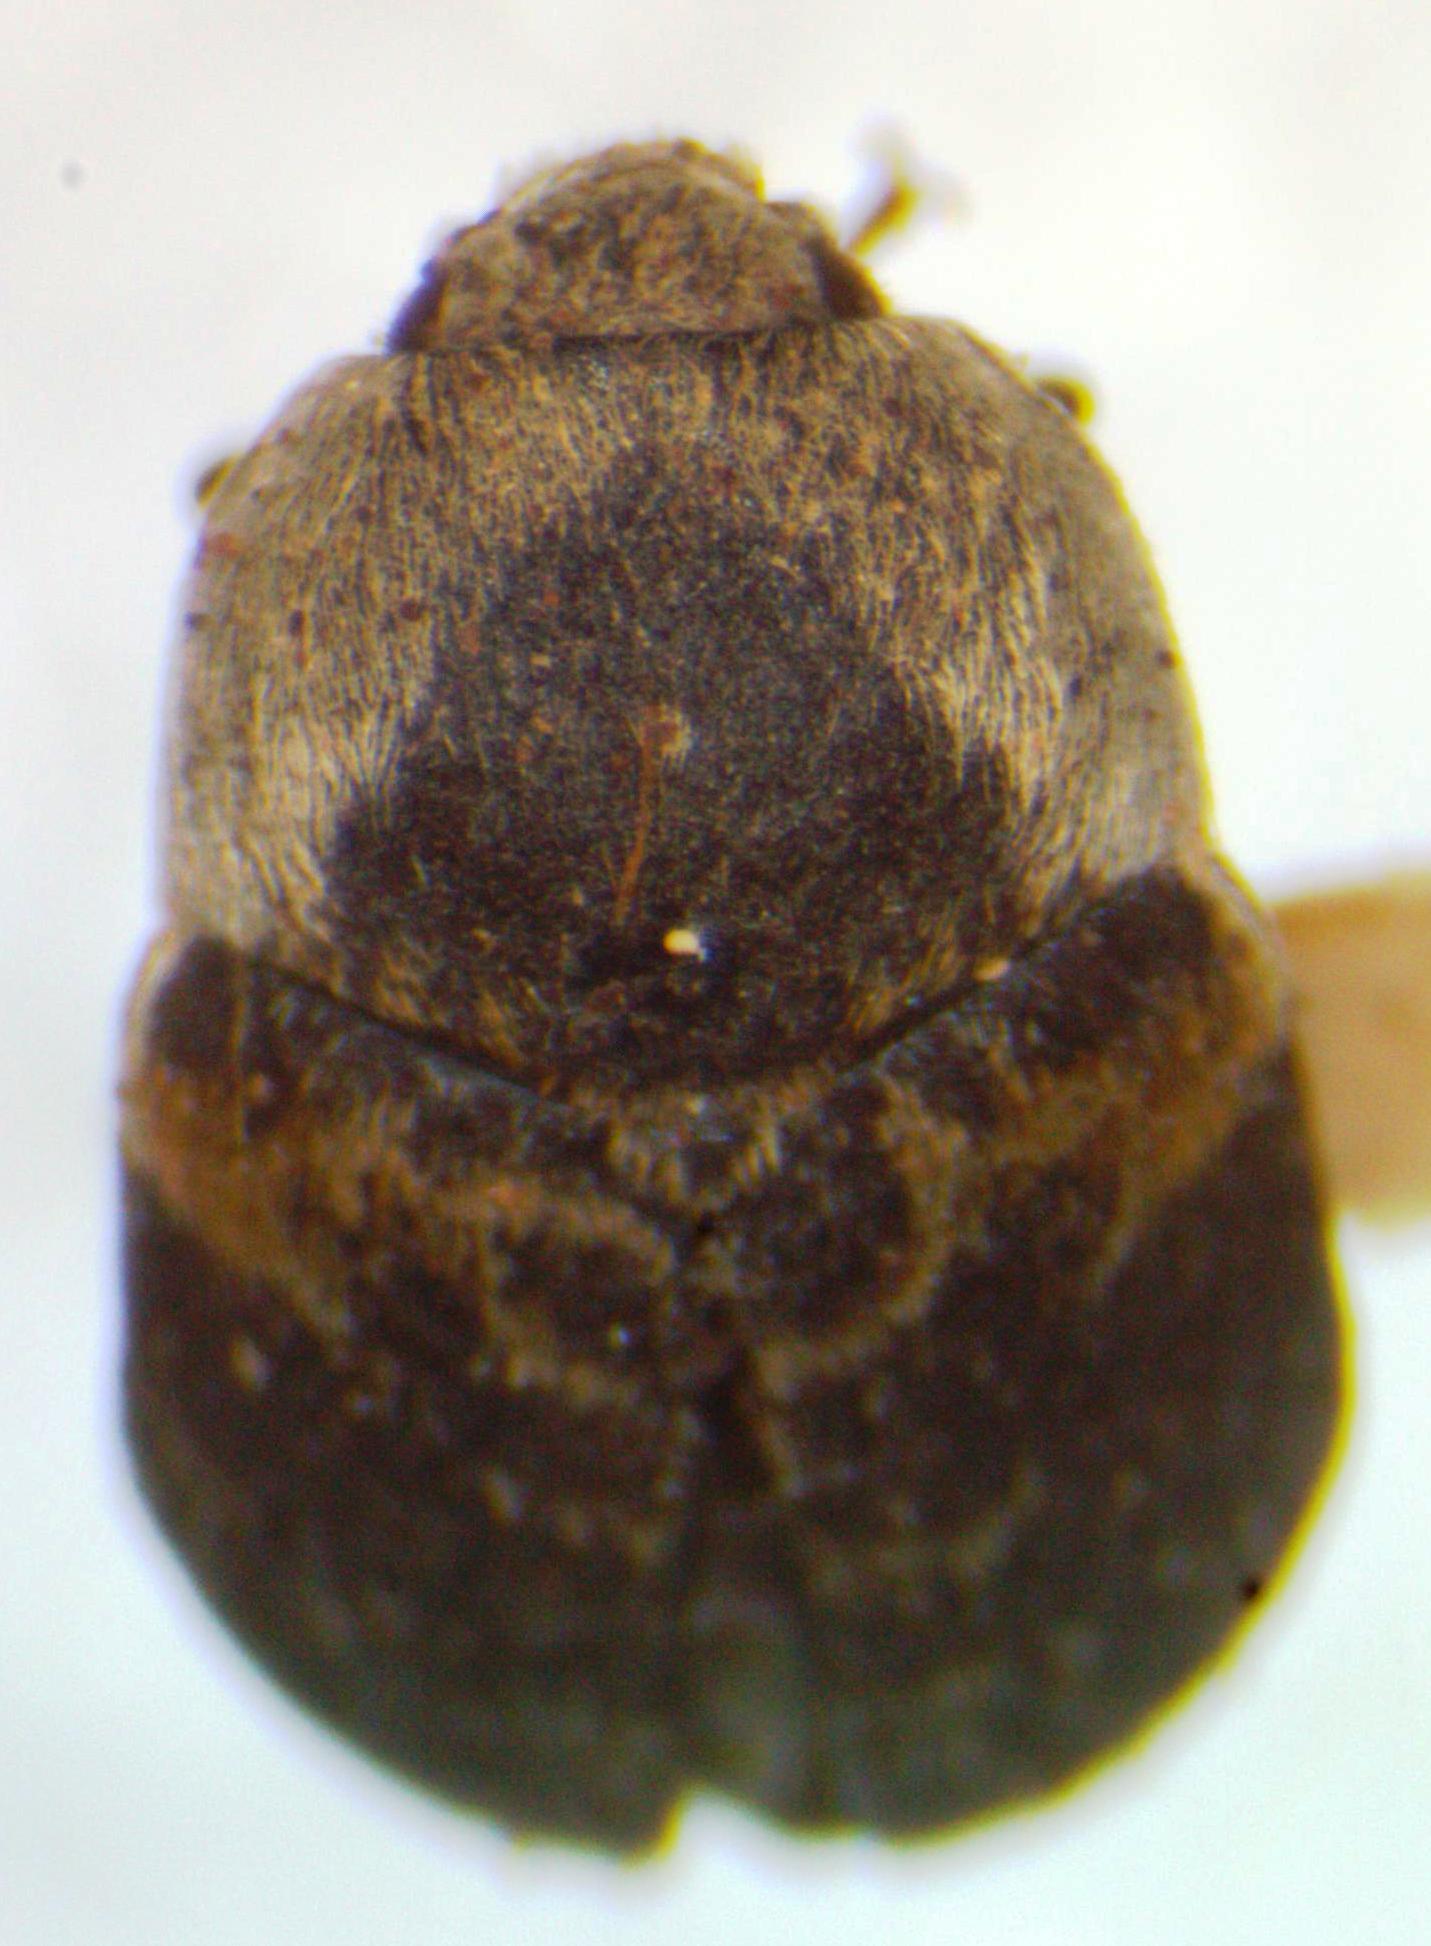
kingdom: Animalia
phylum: Arthropoda
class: Insecta
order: Coleoptera
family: Dermestidae
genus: Dermestes
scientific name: Dermestes carnivorus
